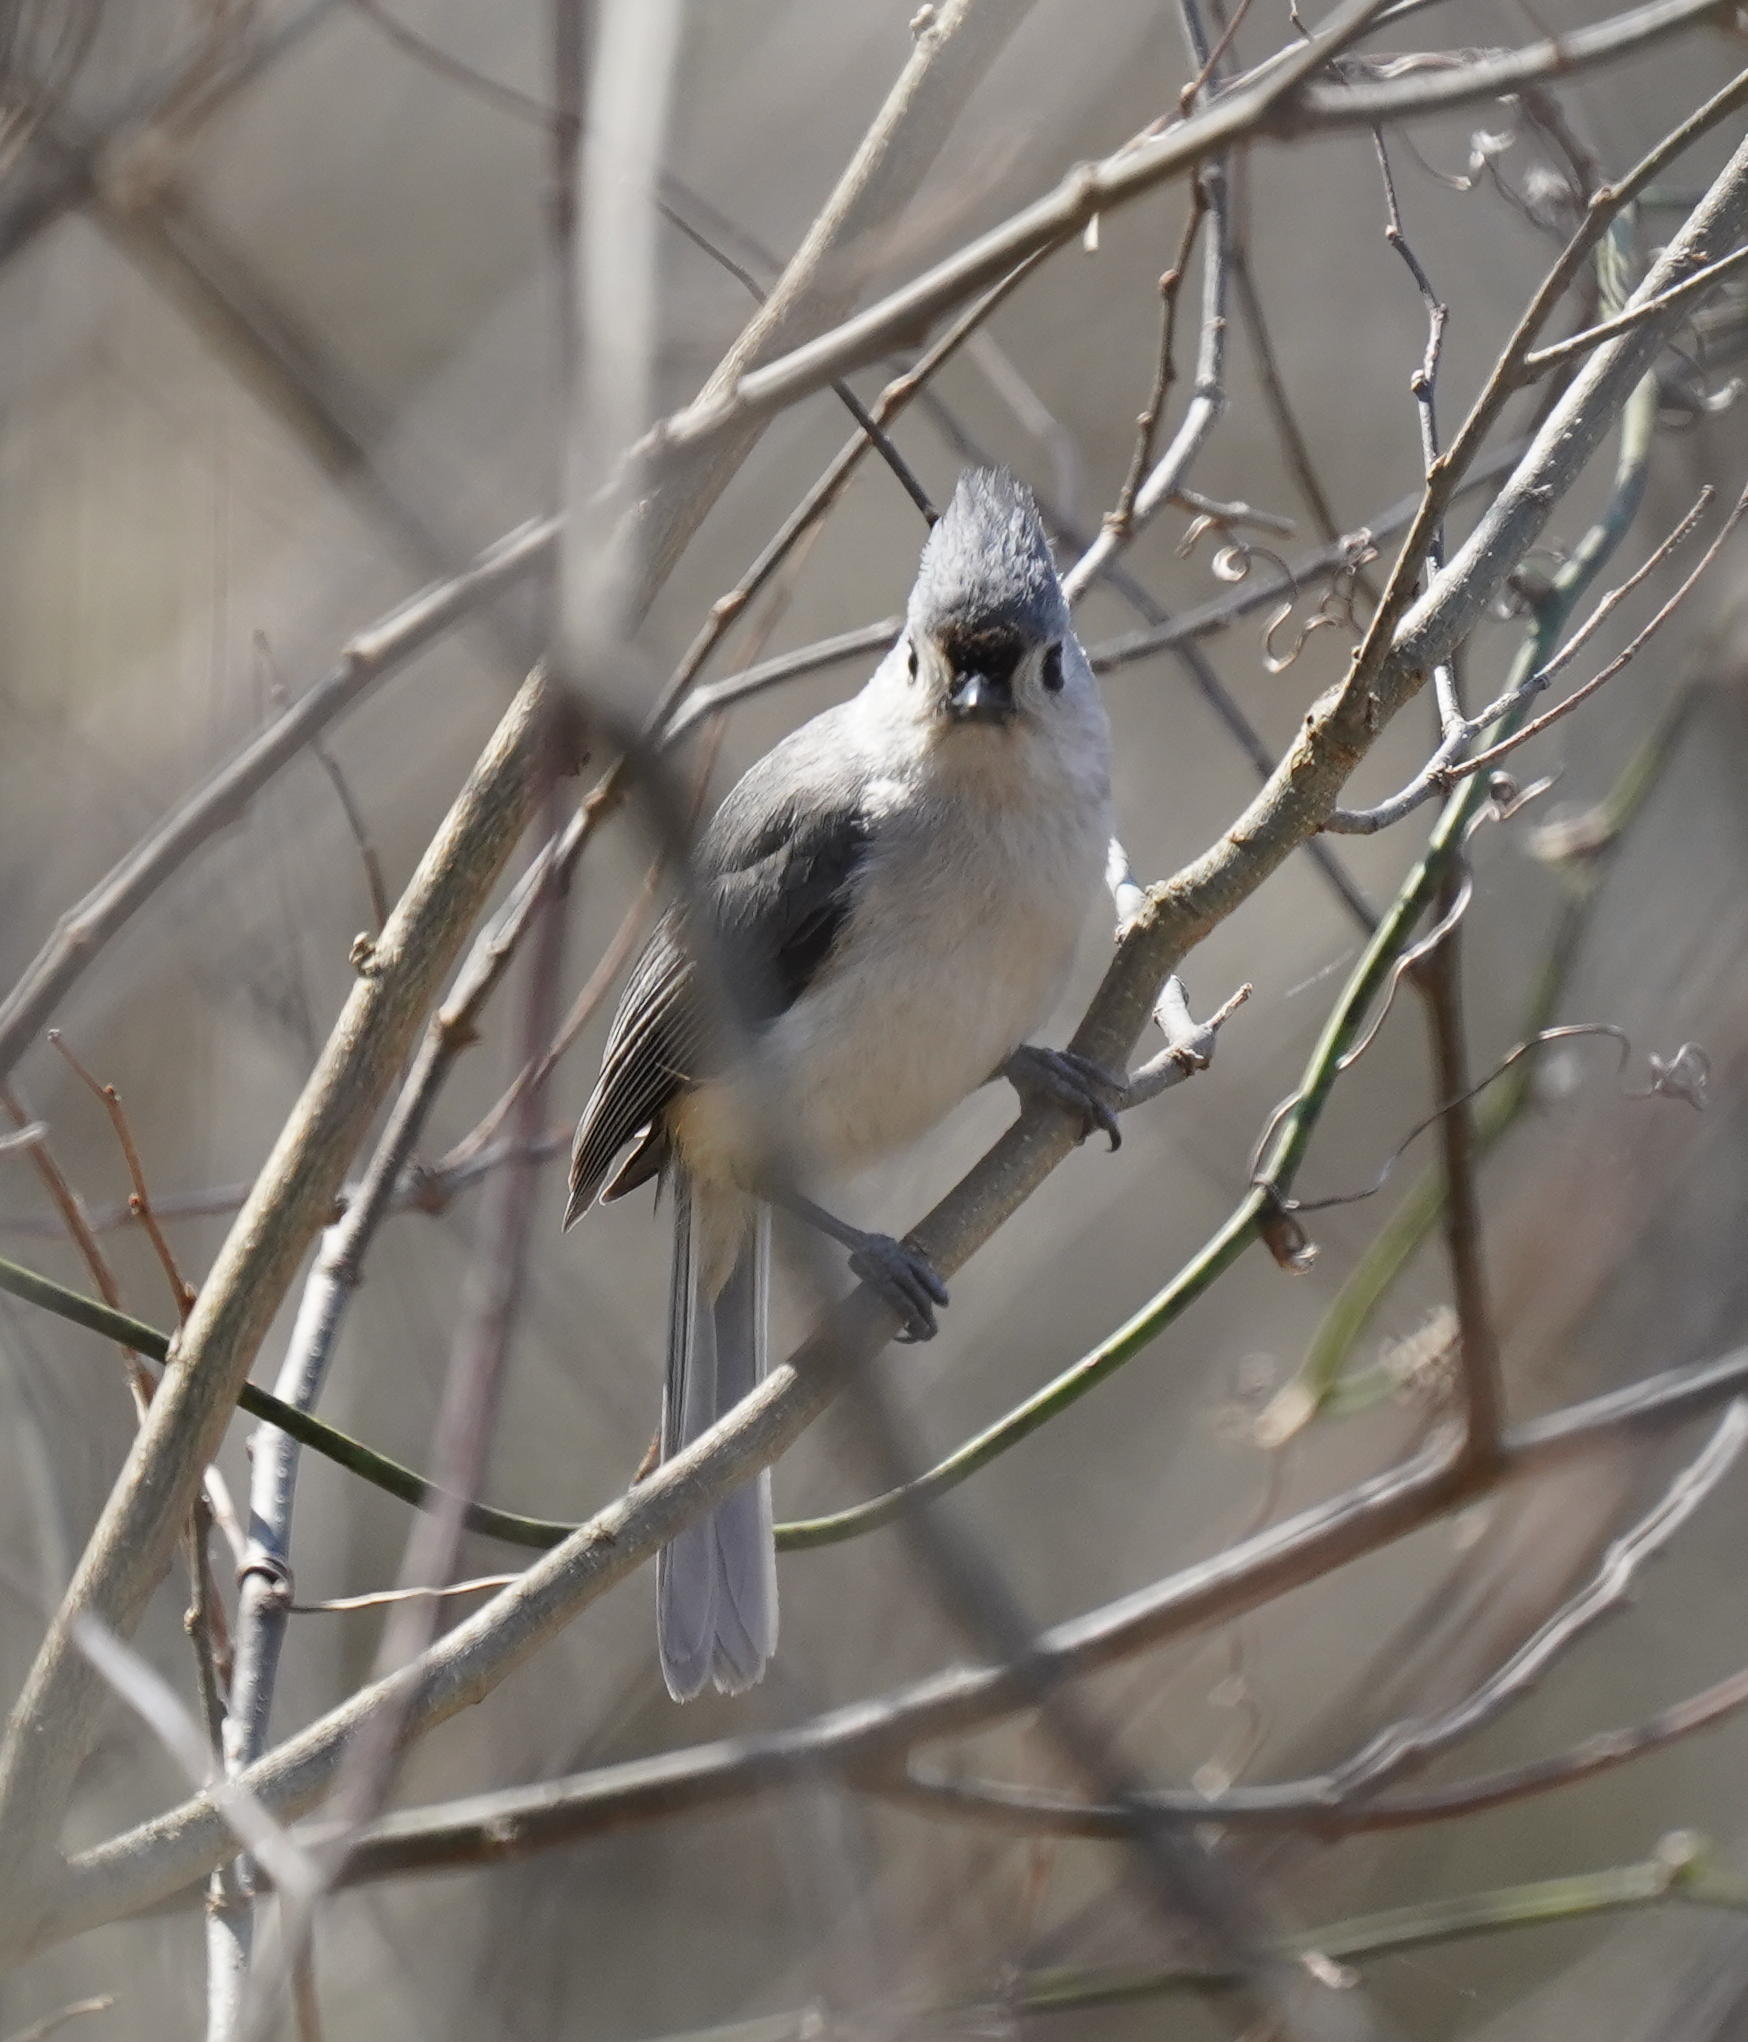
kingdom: Animalia
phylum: Chordata
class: Aves
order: Passeriformes
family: Paridae
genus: Baeolophus
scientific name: Baeolophus bicolor
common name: Tufted titmouse
